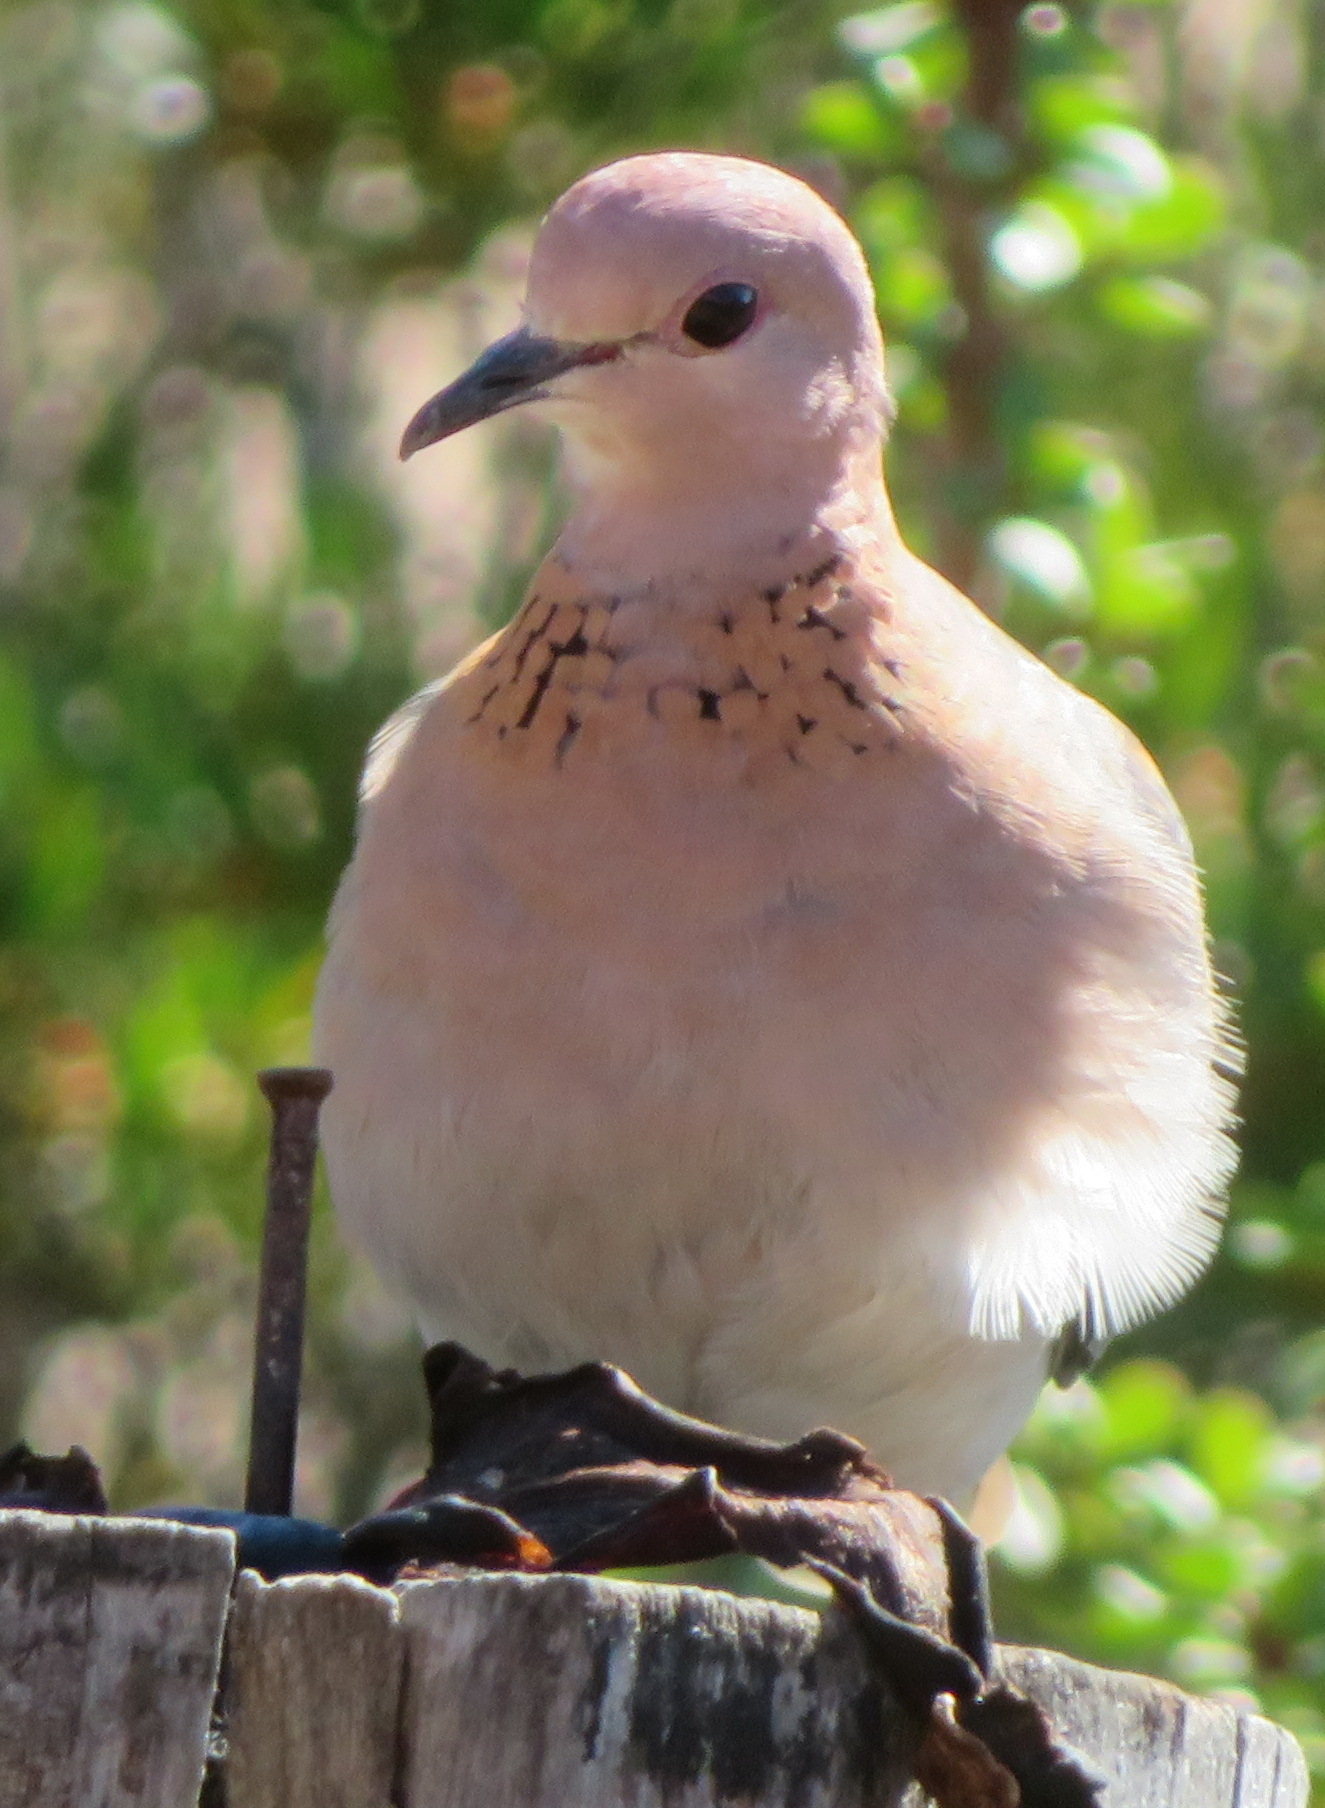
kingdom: Animalia
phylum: Chordata
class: Aves
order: Columbiformes
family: Columbidae
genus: Spilopelia
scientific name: Spilopelia senegalensis
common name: Laughing dove
